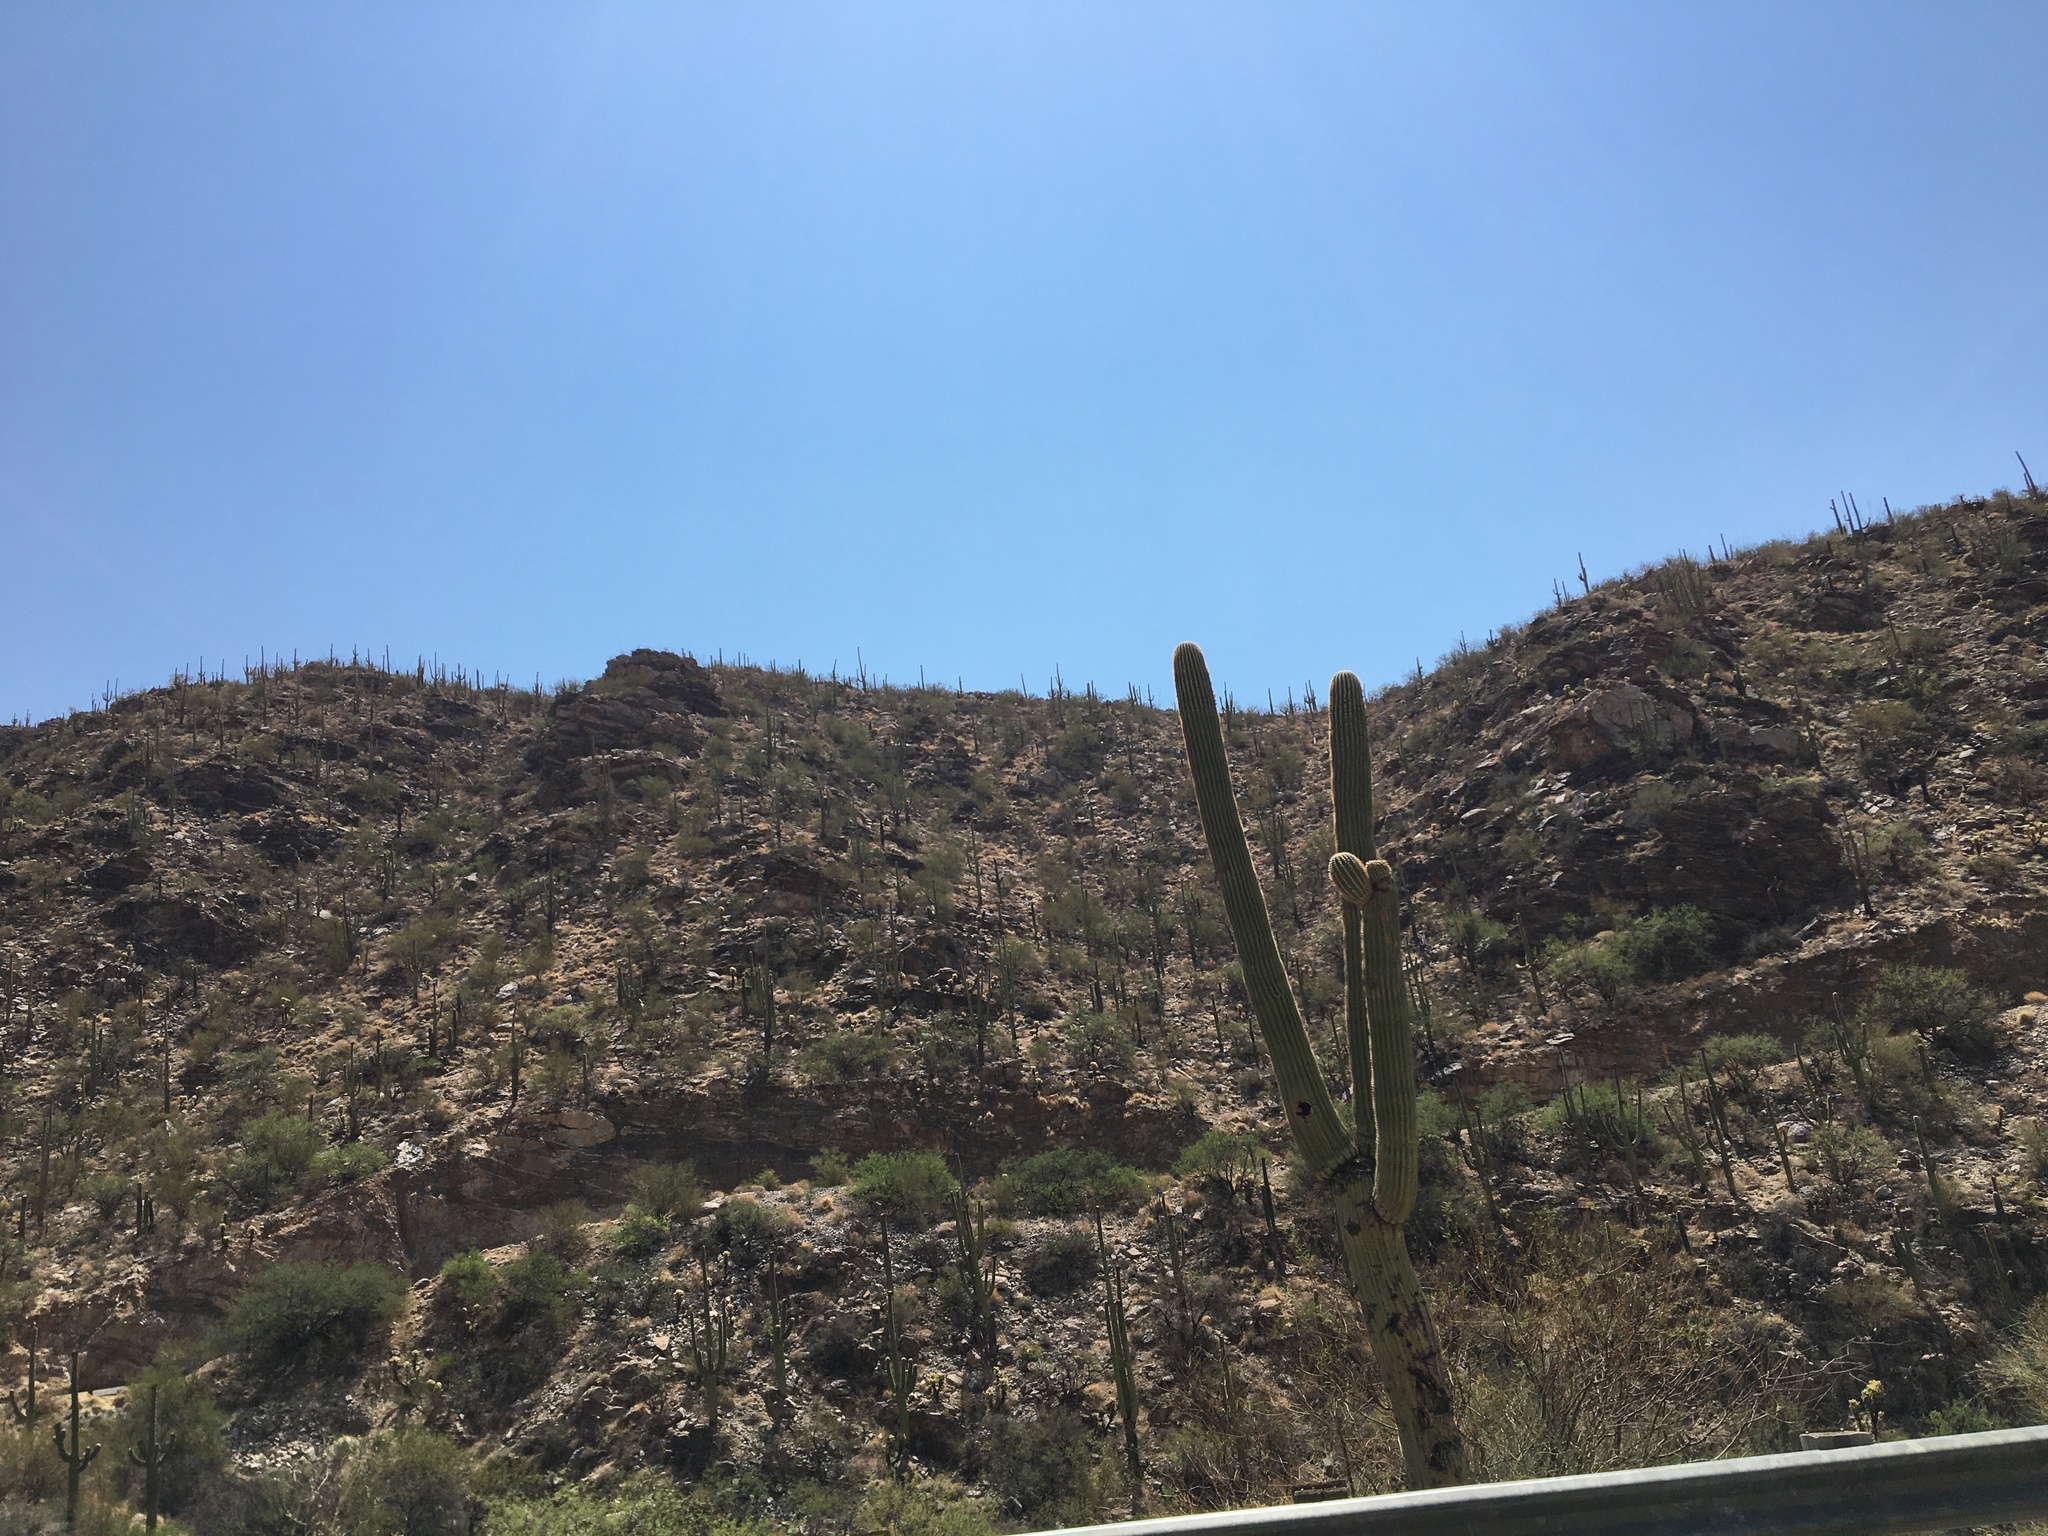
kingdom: Plantae
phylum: Tracheophyta
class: Magnoliopsida
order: Caryophyllales
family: Cactaceae
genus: Carnegiea
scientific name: Carnegiea gigantea
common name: Saguaro
